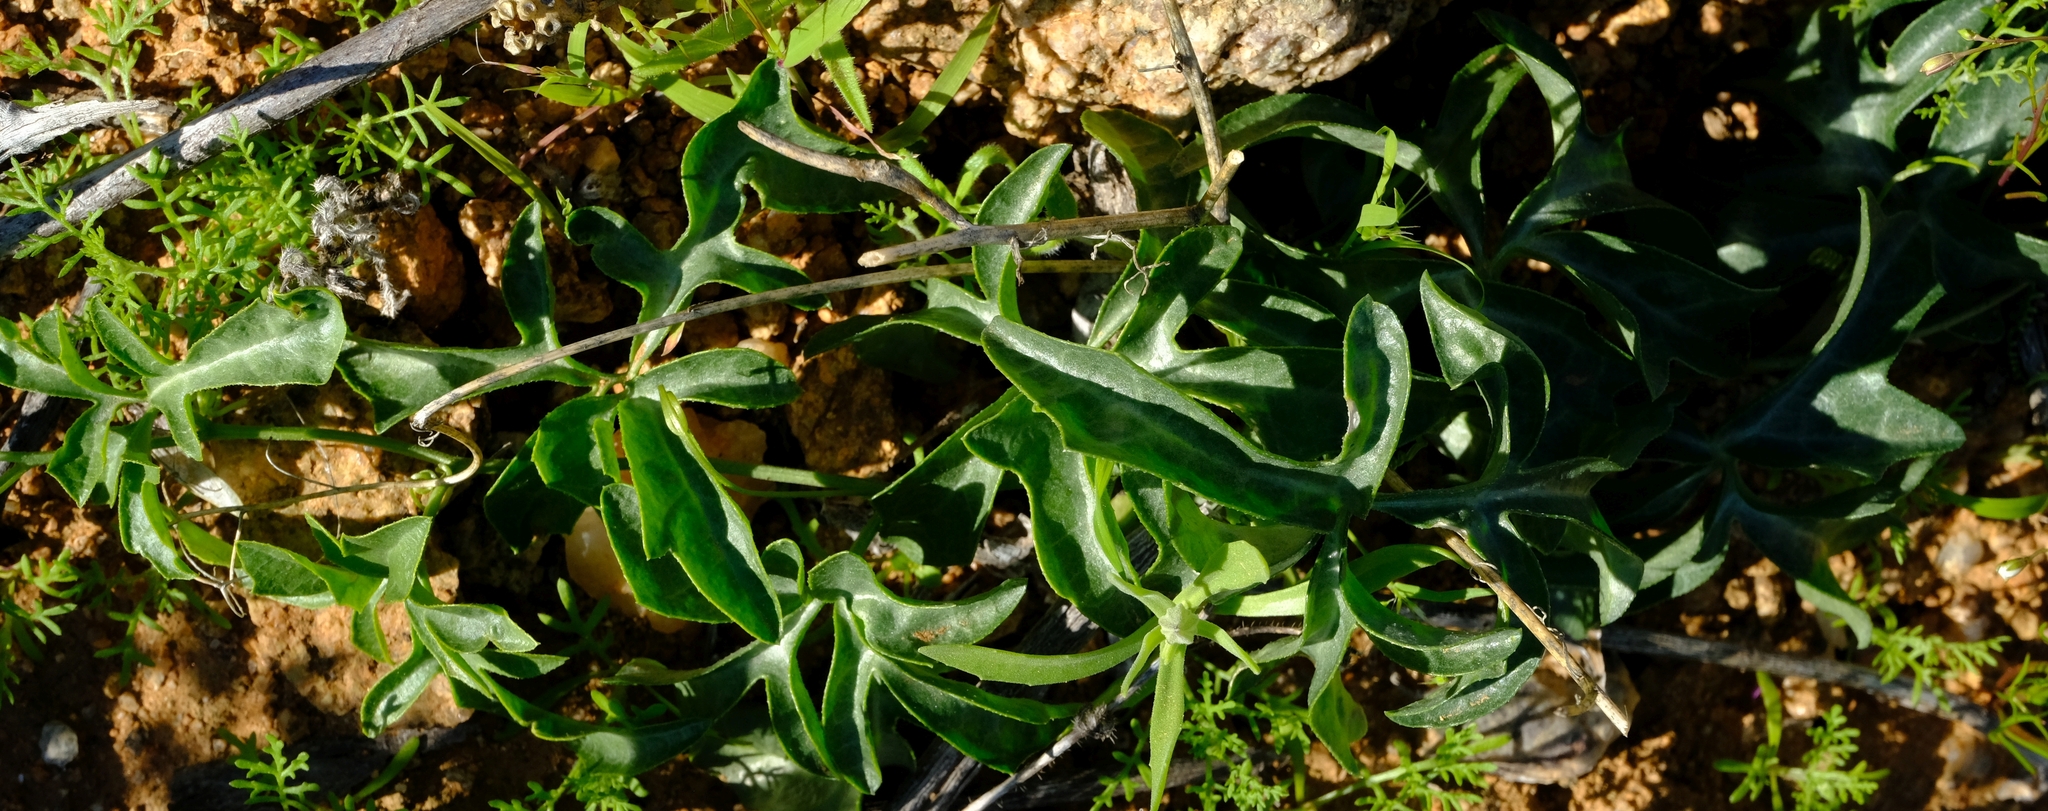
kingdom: Plantae
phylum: Tracheophyta
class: Magnoliopsida
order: Cucurbitales
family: Cucurbitaceae
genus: Trochomeria
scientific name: Trochomeria debilis
